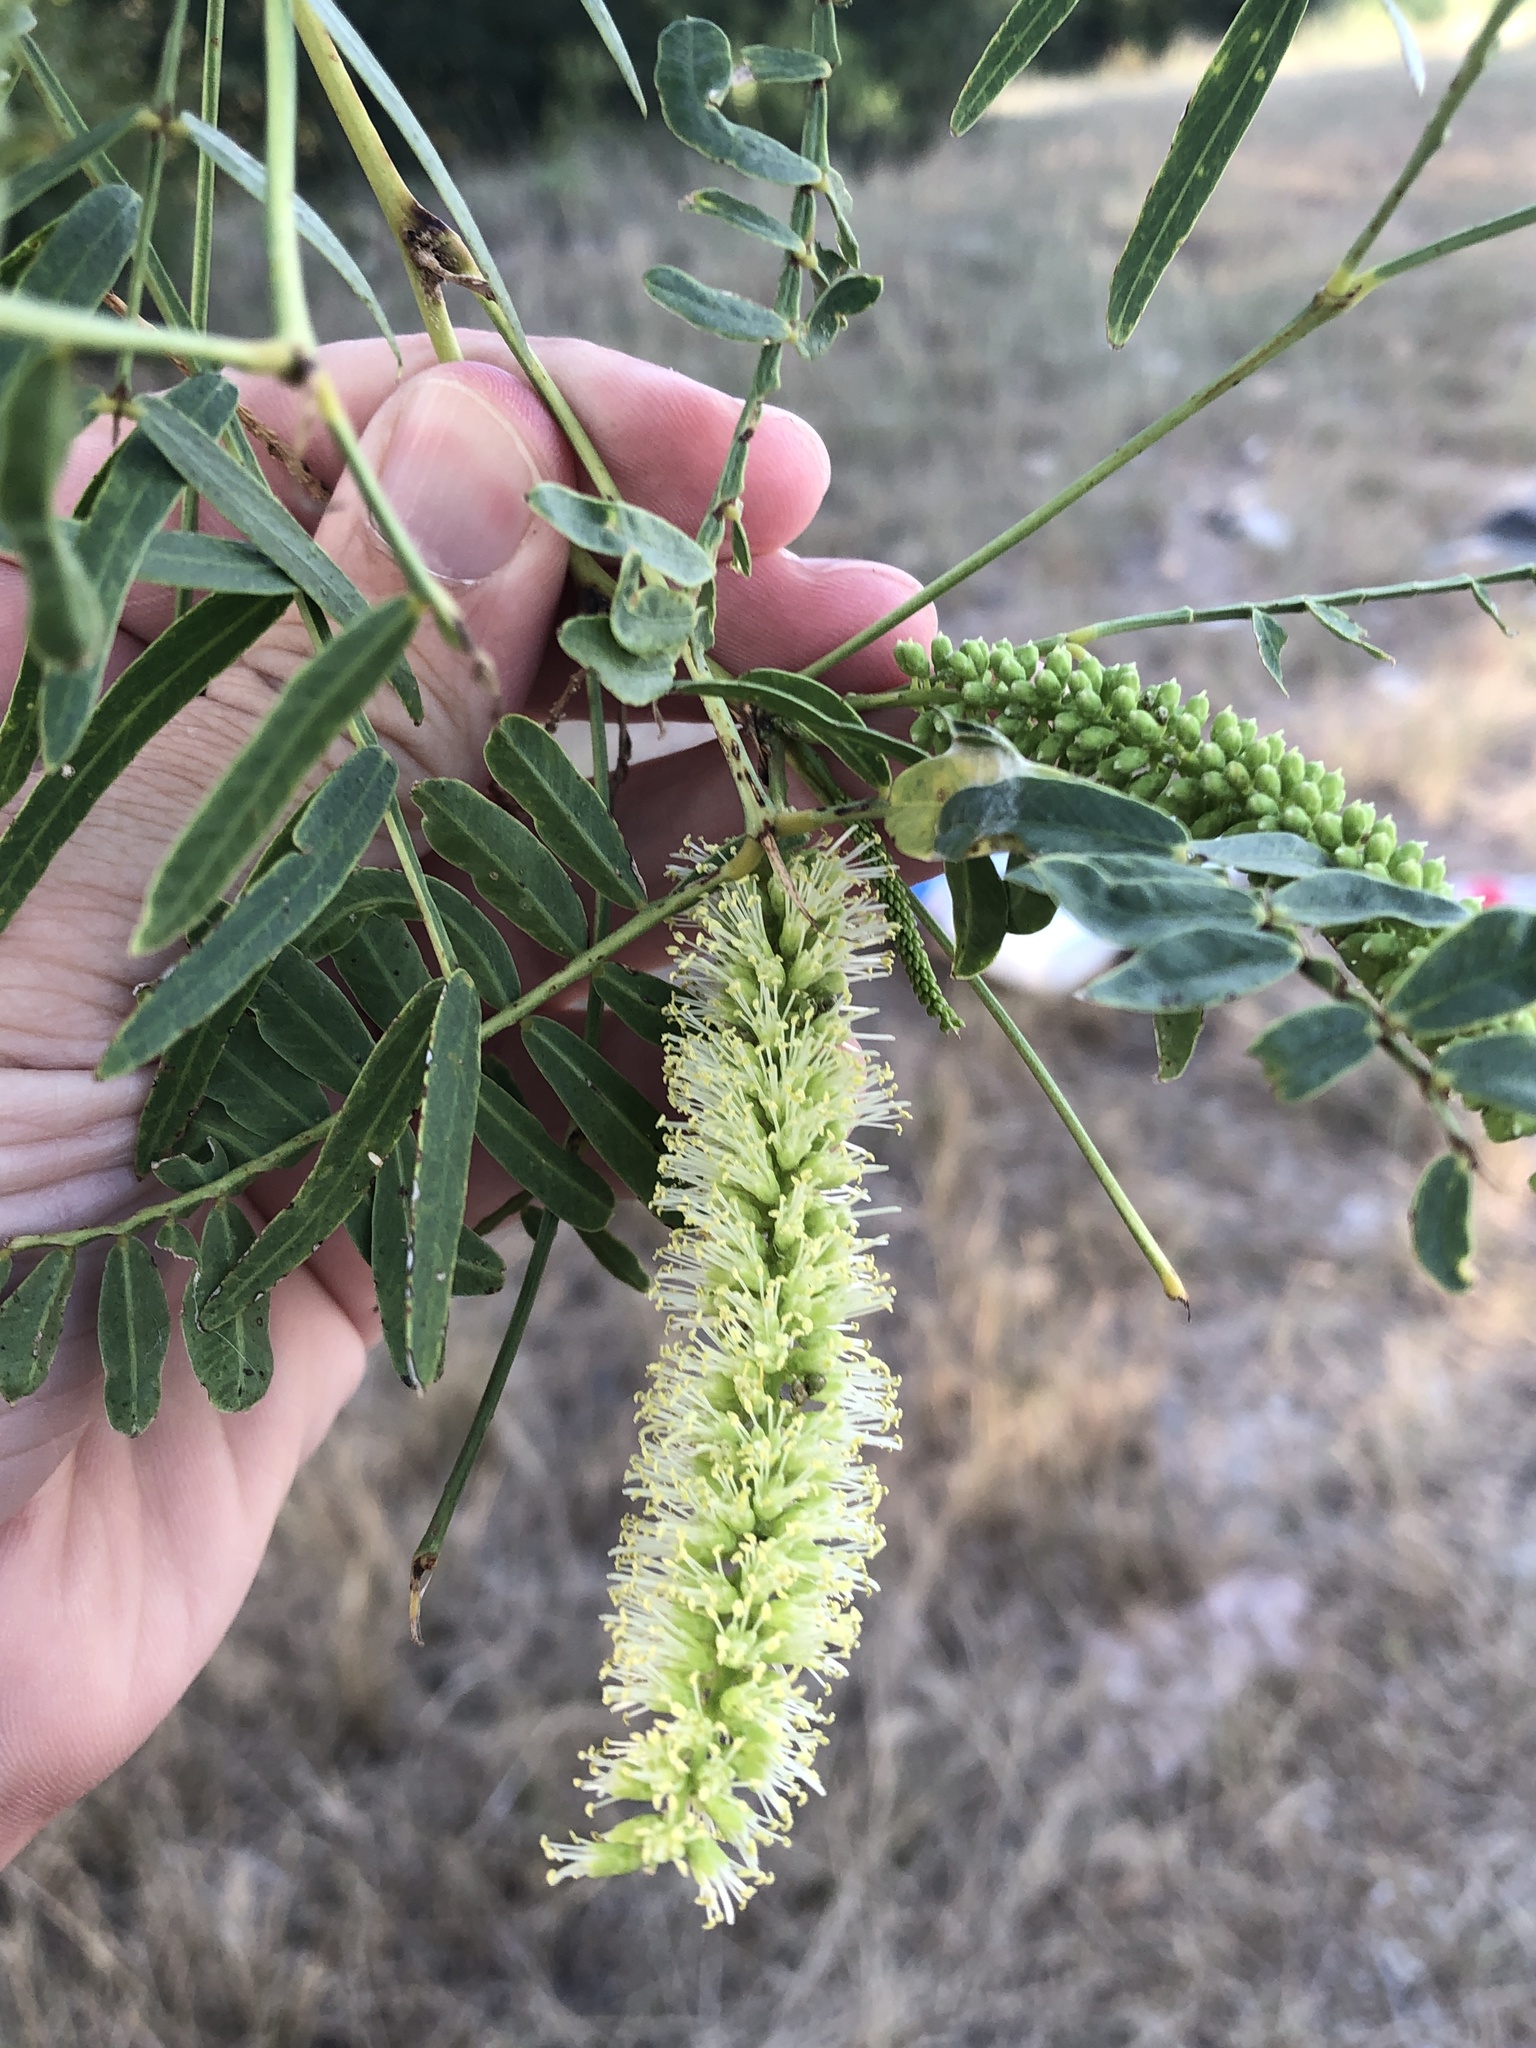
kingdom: Plantae
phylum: Tracheophyta
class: Magnoliopsida
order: Fabales
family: Fabaceae
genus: Prosopis
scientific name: Prosopis glandulosa
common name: Honey mesquite
